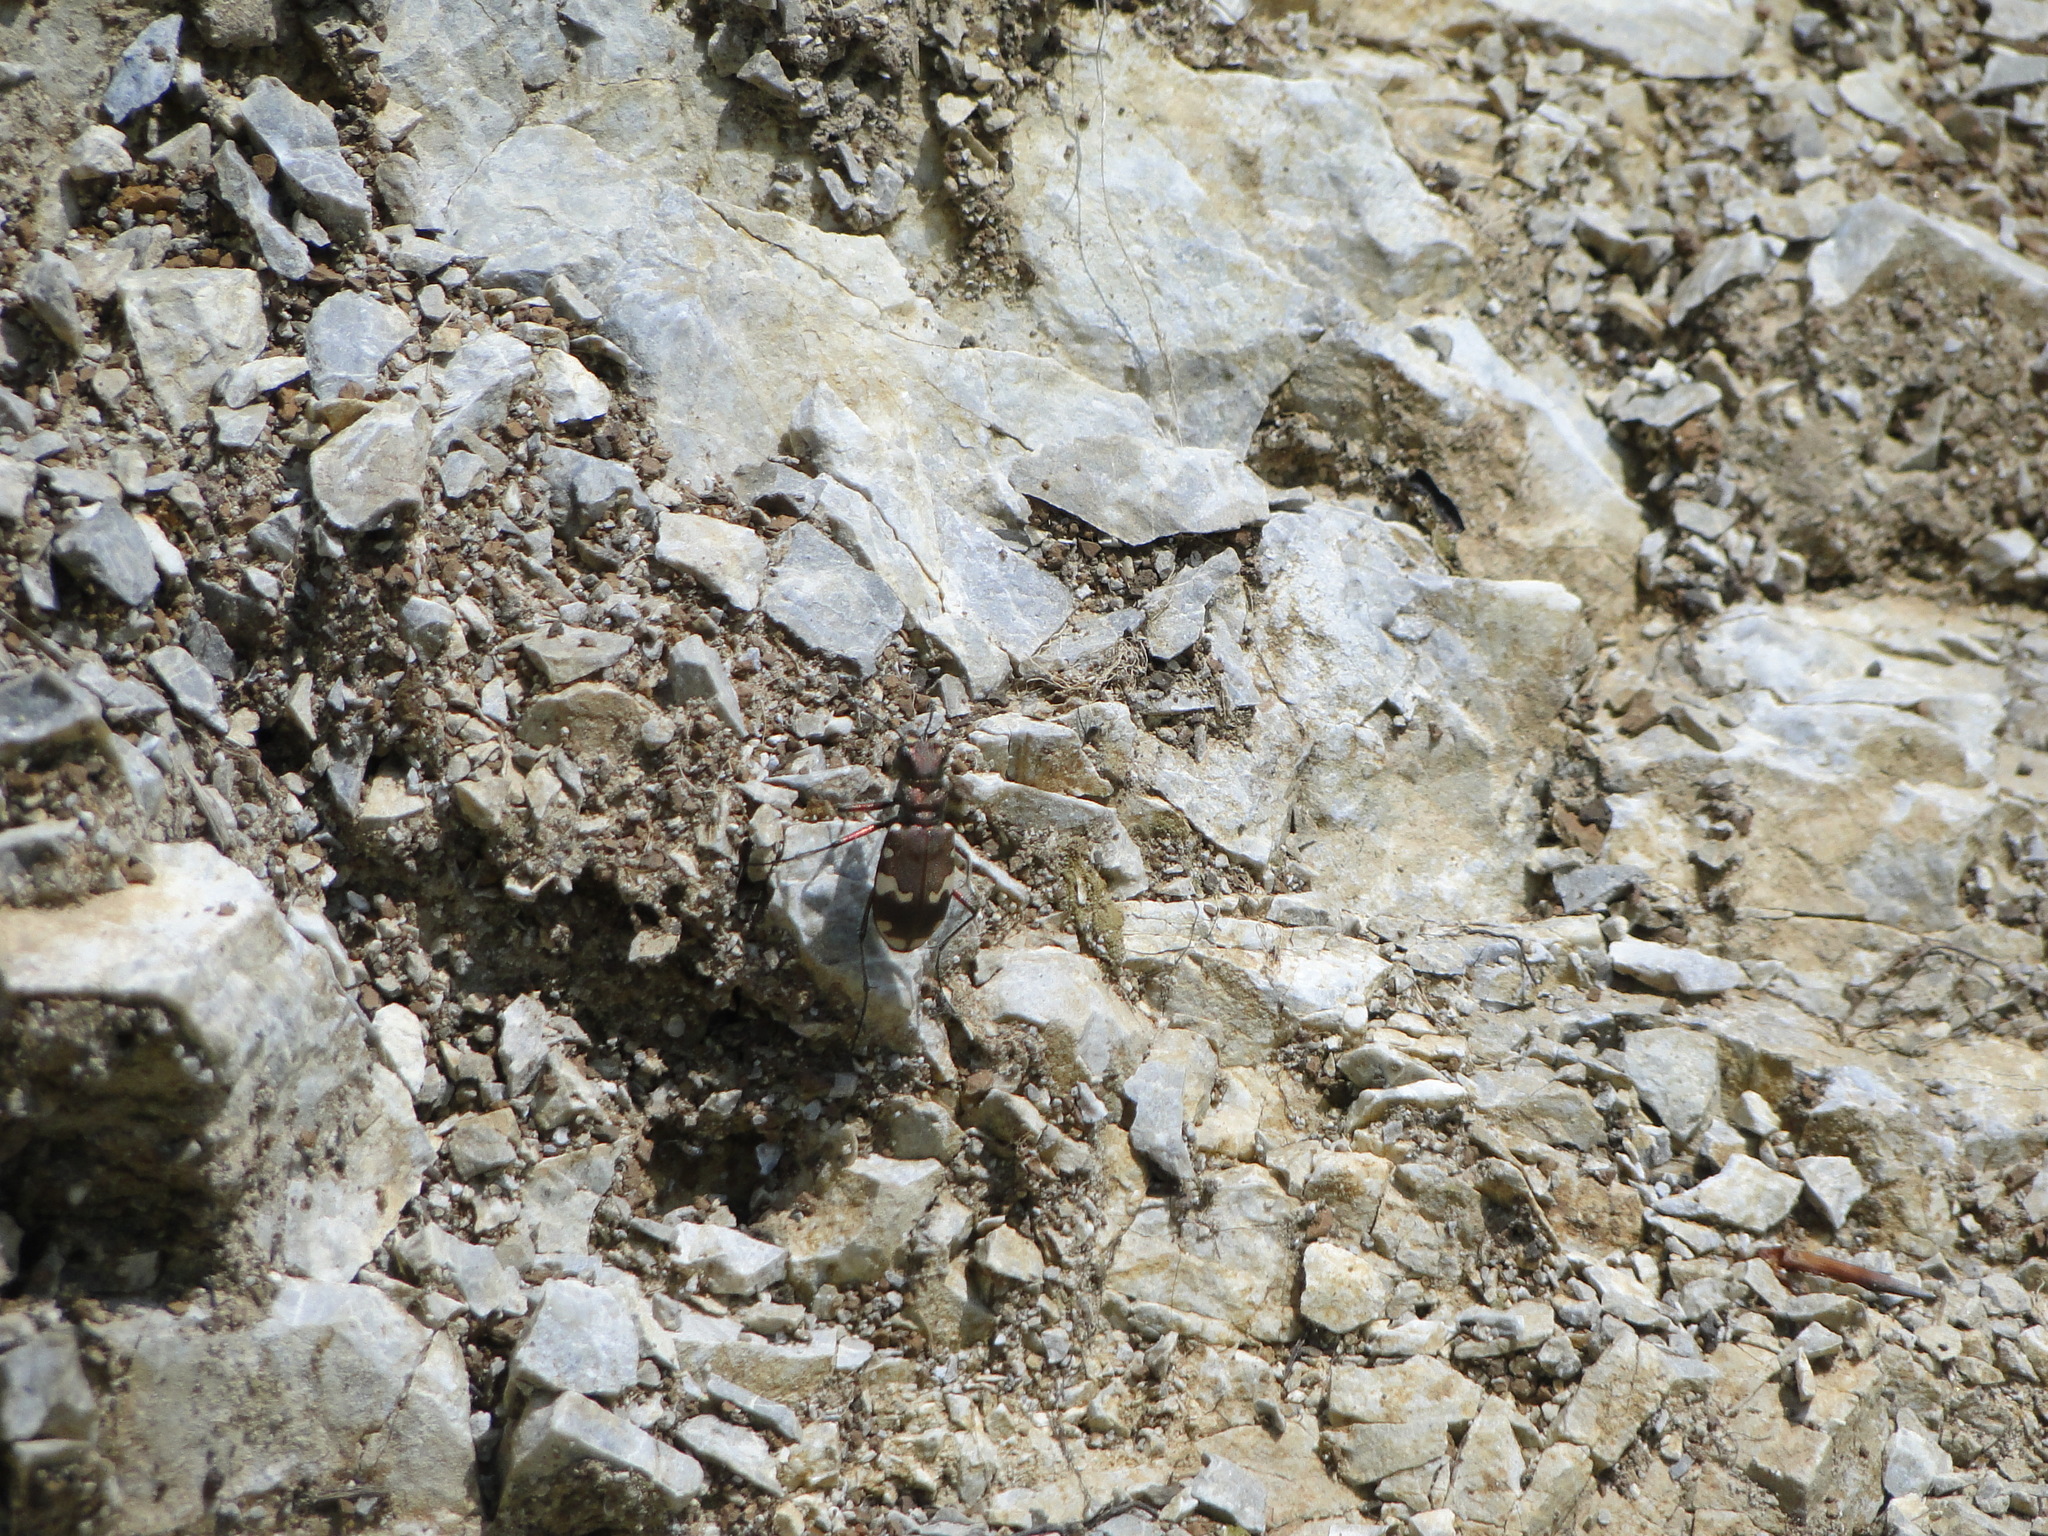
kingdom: Animalia
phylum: Arthropoda
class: Insecta
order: Coleoptera
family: Carabidae
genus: Cicindela
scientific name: Cicindela sylvicola
